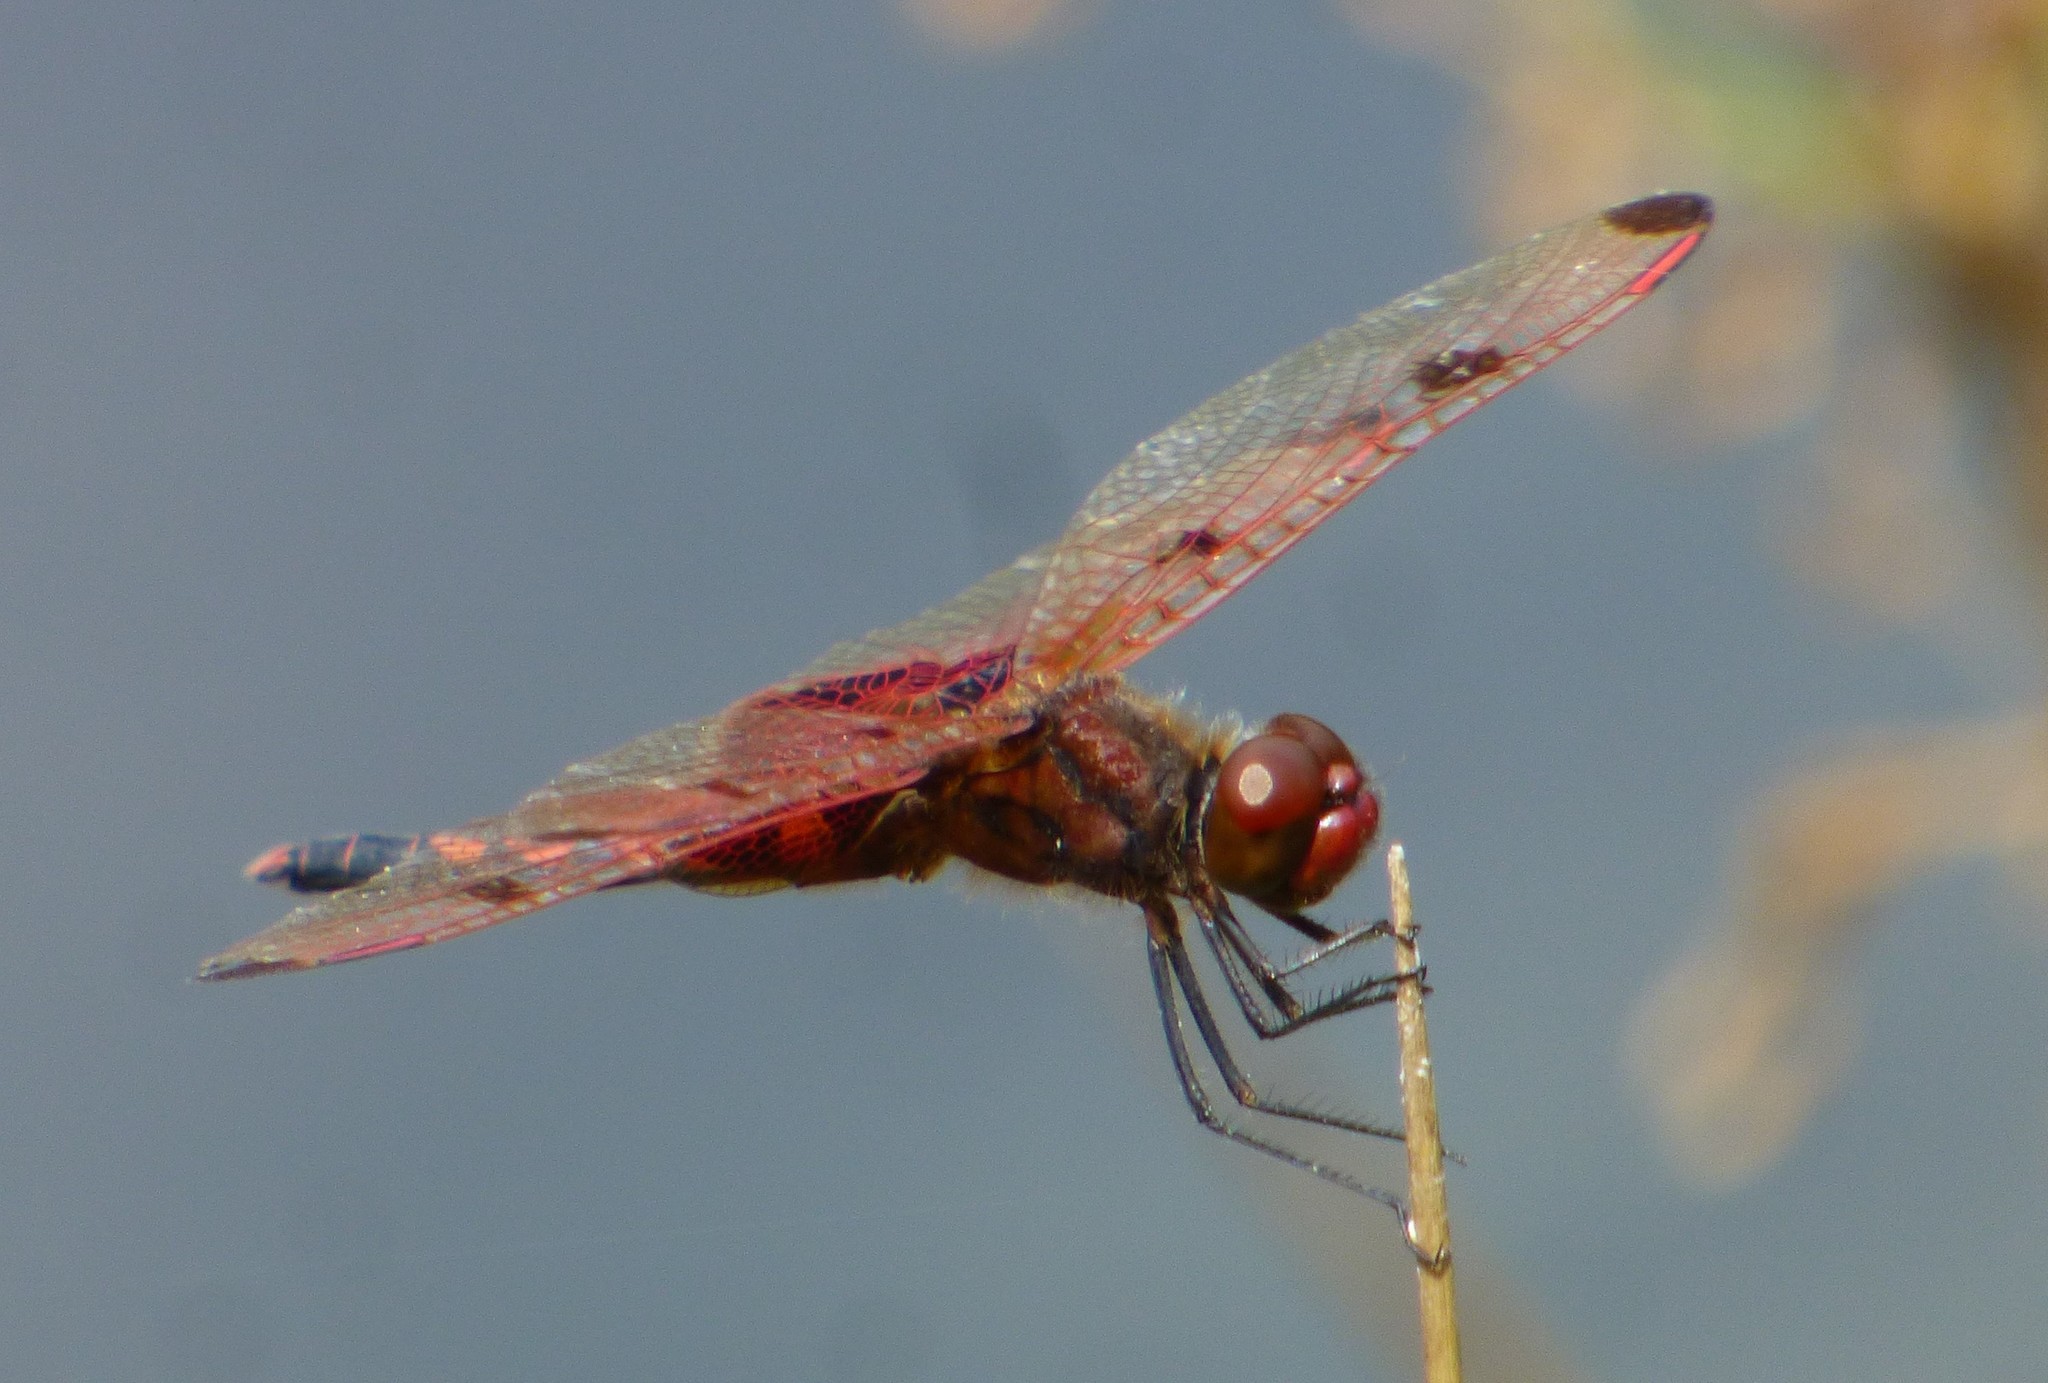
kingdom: Animalia
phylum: Arthropoda
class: Insecta
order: Odonata
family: Libellulidae
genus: Celithemis
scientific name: Celithemis elisa
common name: Calico pennant
